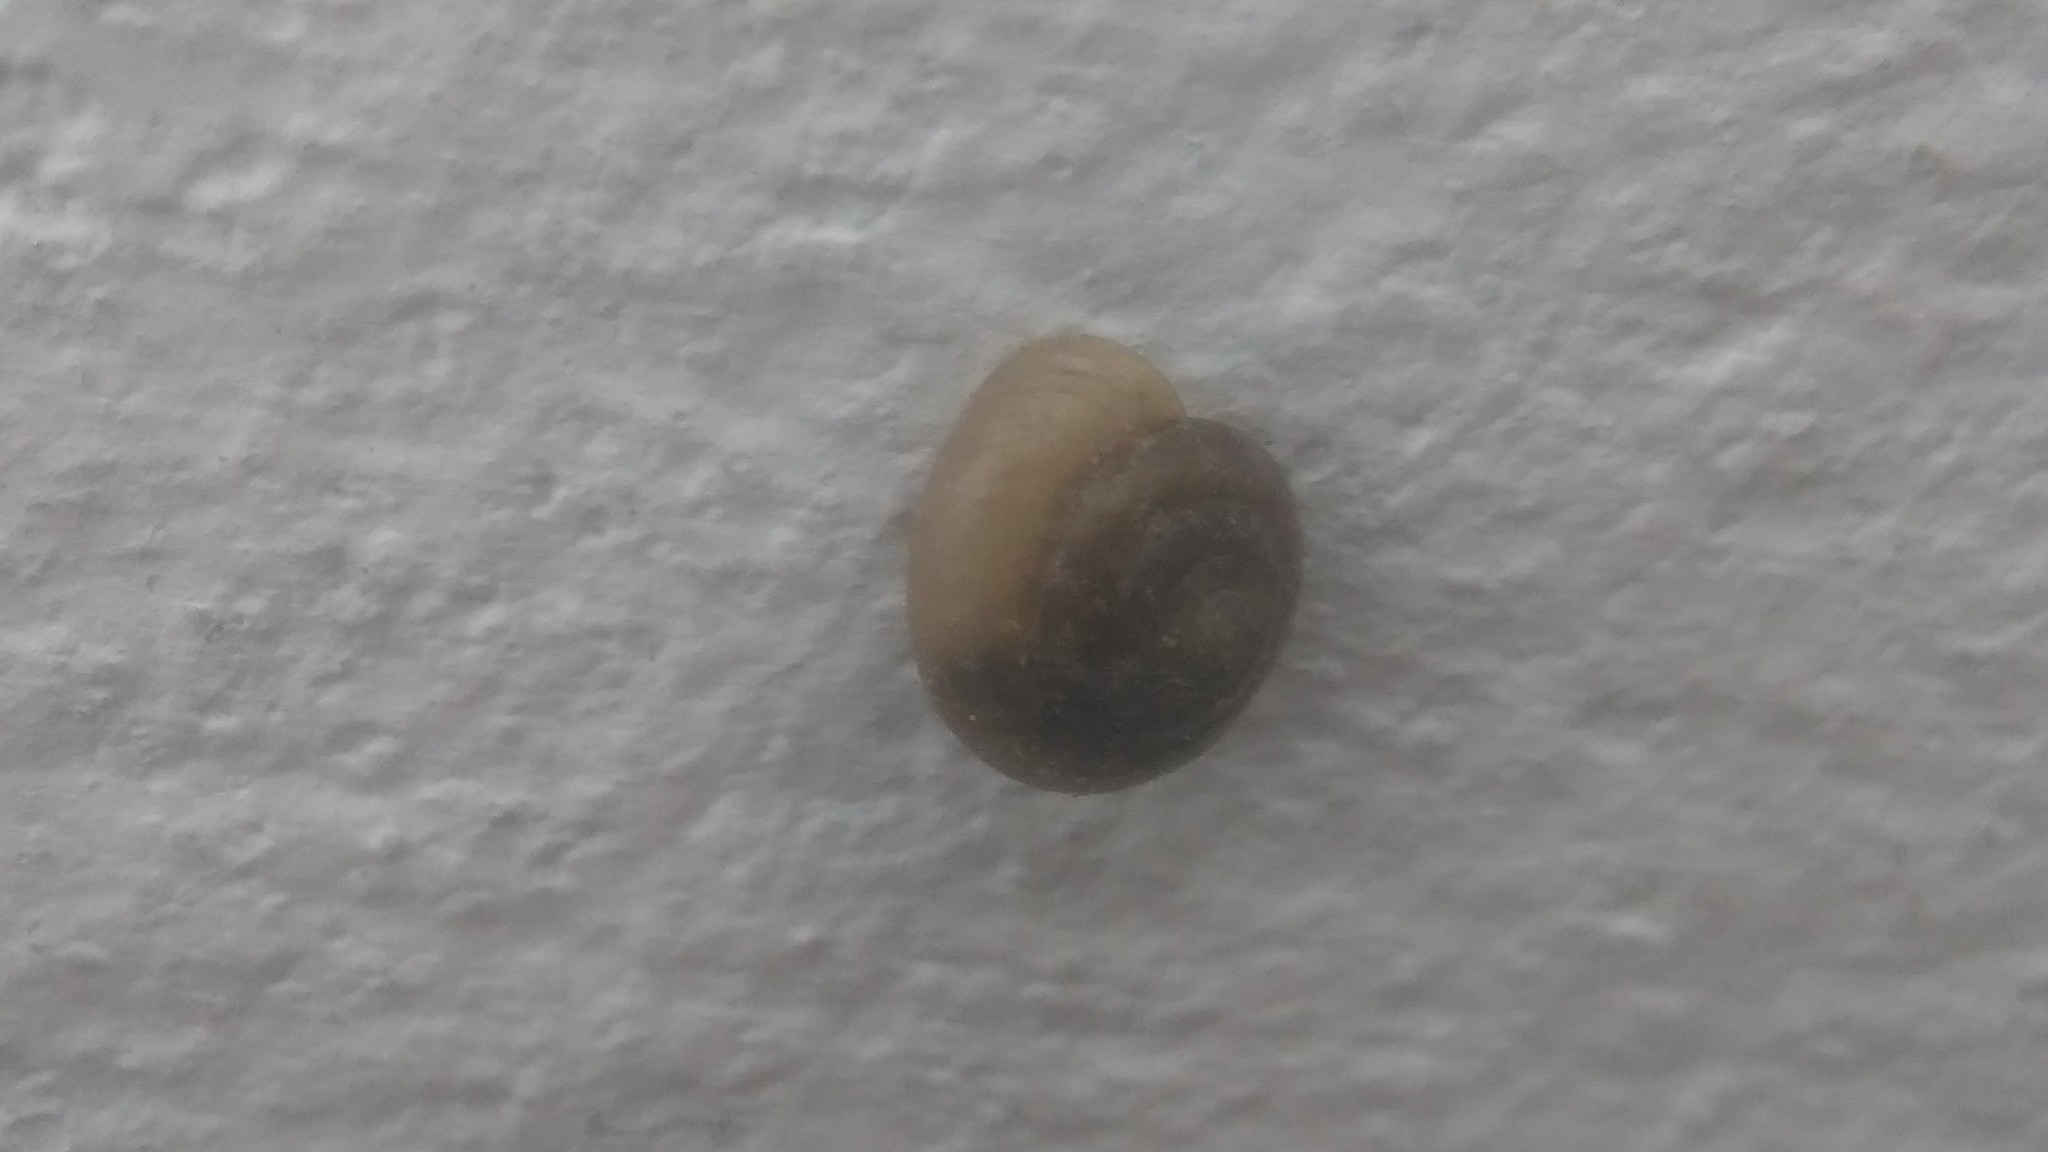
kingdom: Animalia
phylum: Mollusca
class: Gastropoda
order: Stylommatophora
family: Camaenidae
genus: Bradybaena
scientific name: Bradybaena similaris
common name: Asian trampsnail
